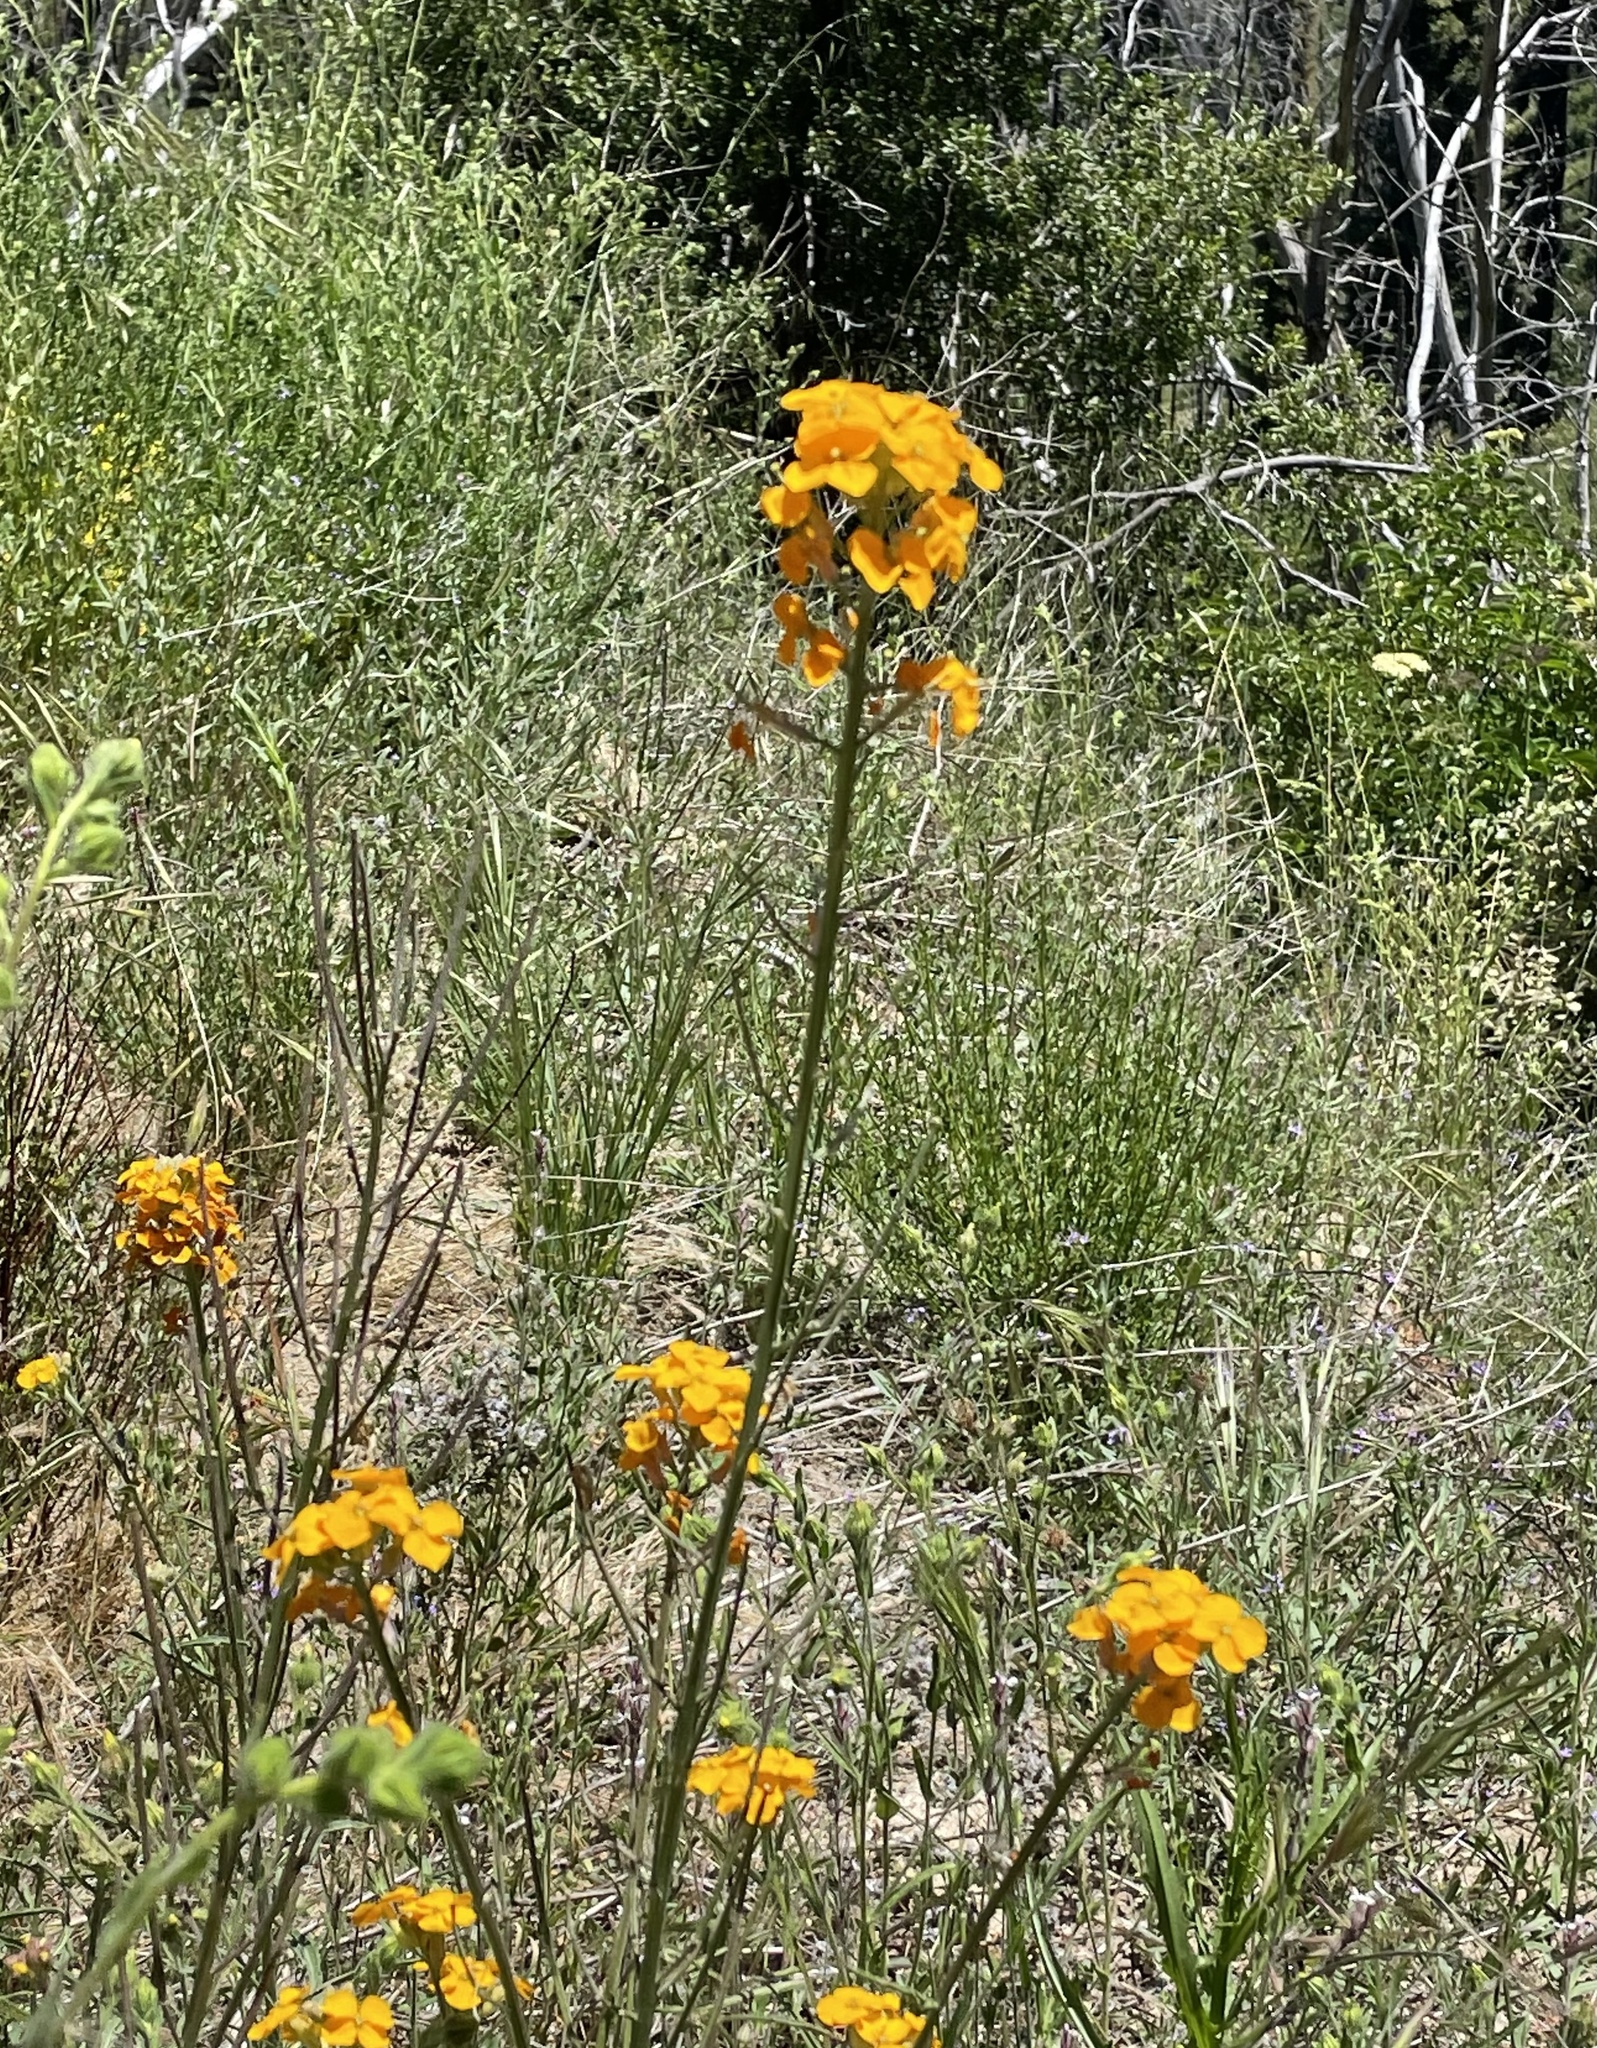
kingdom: Plantae
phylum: Tracheophyta
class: Magnoliopsida
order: Brassicales
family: Brassicaceae
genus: Erysimum
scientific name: Erysimum capitatum
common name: Western wallflower
